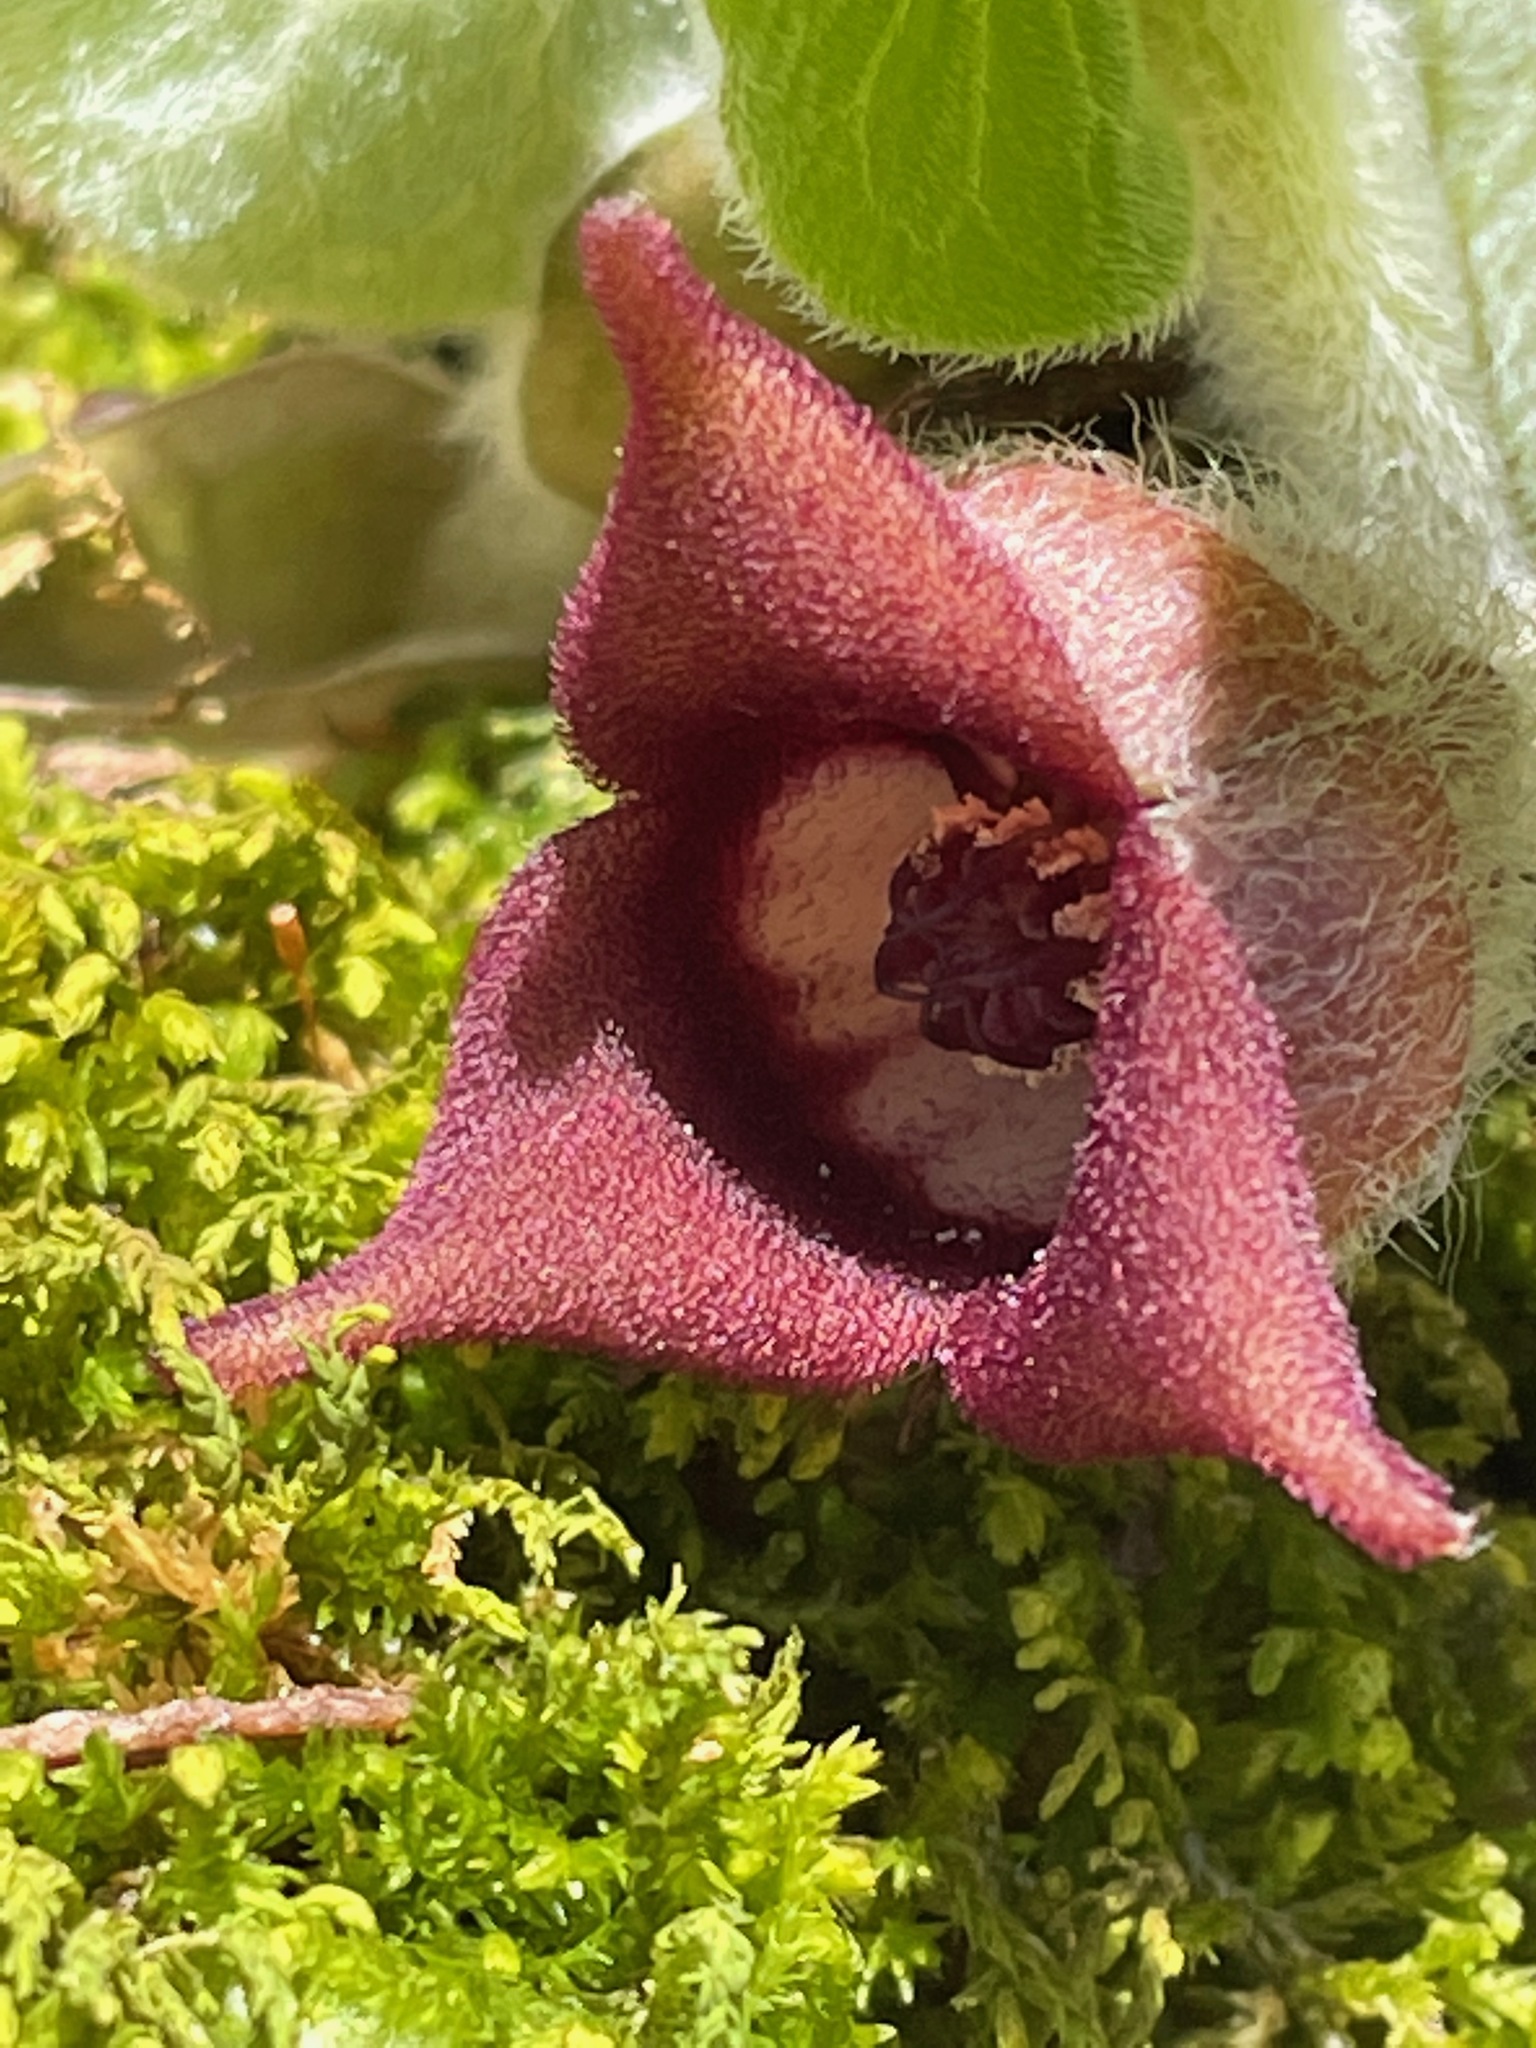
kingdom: Plantae
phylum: Tracheophyta
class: Magnoliopsida
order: Piperales
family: Aristolochiaceae
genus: Asarum
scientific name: Asarum canadense
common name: Wild ginger
